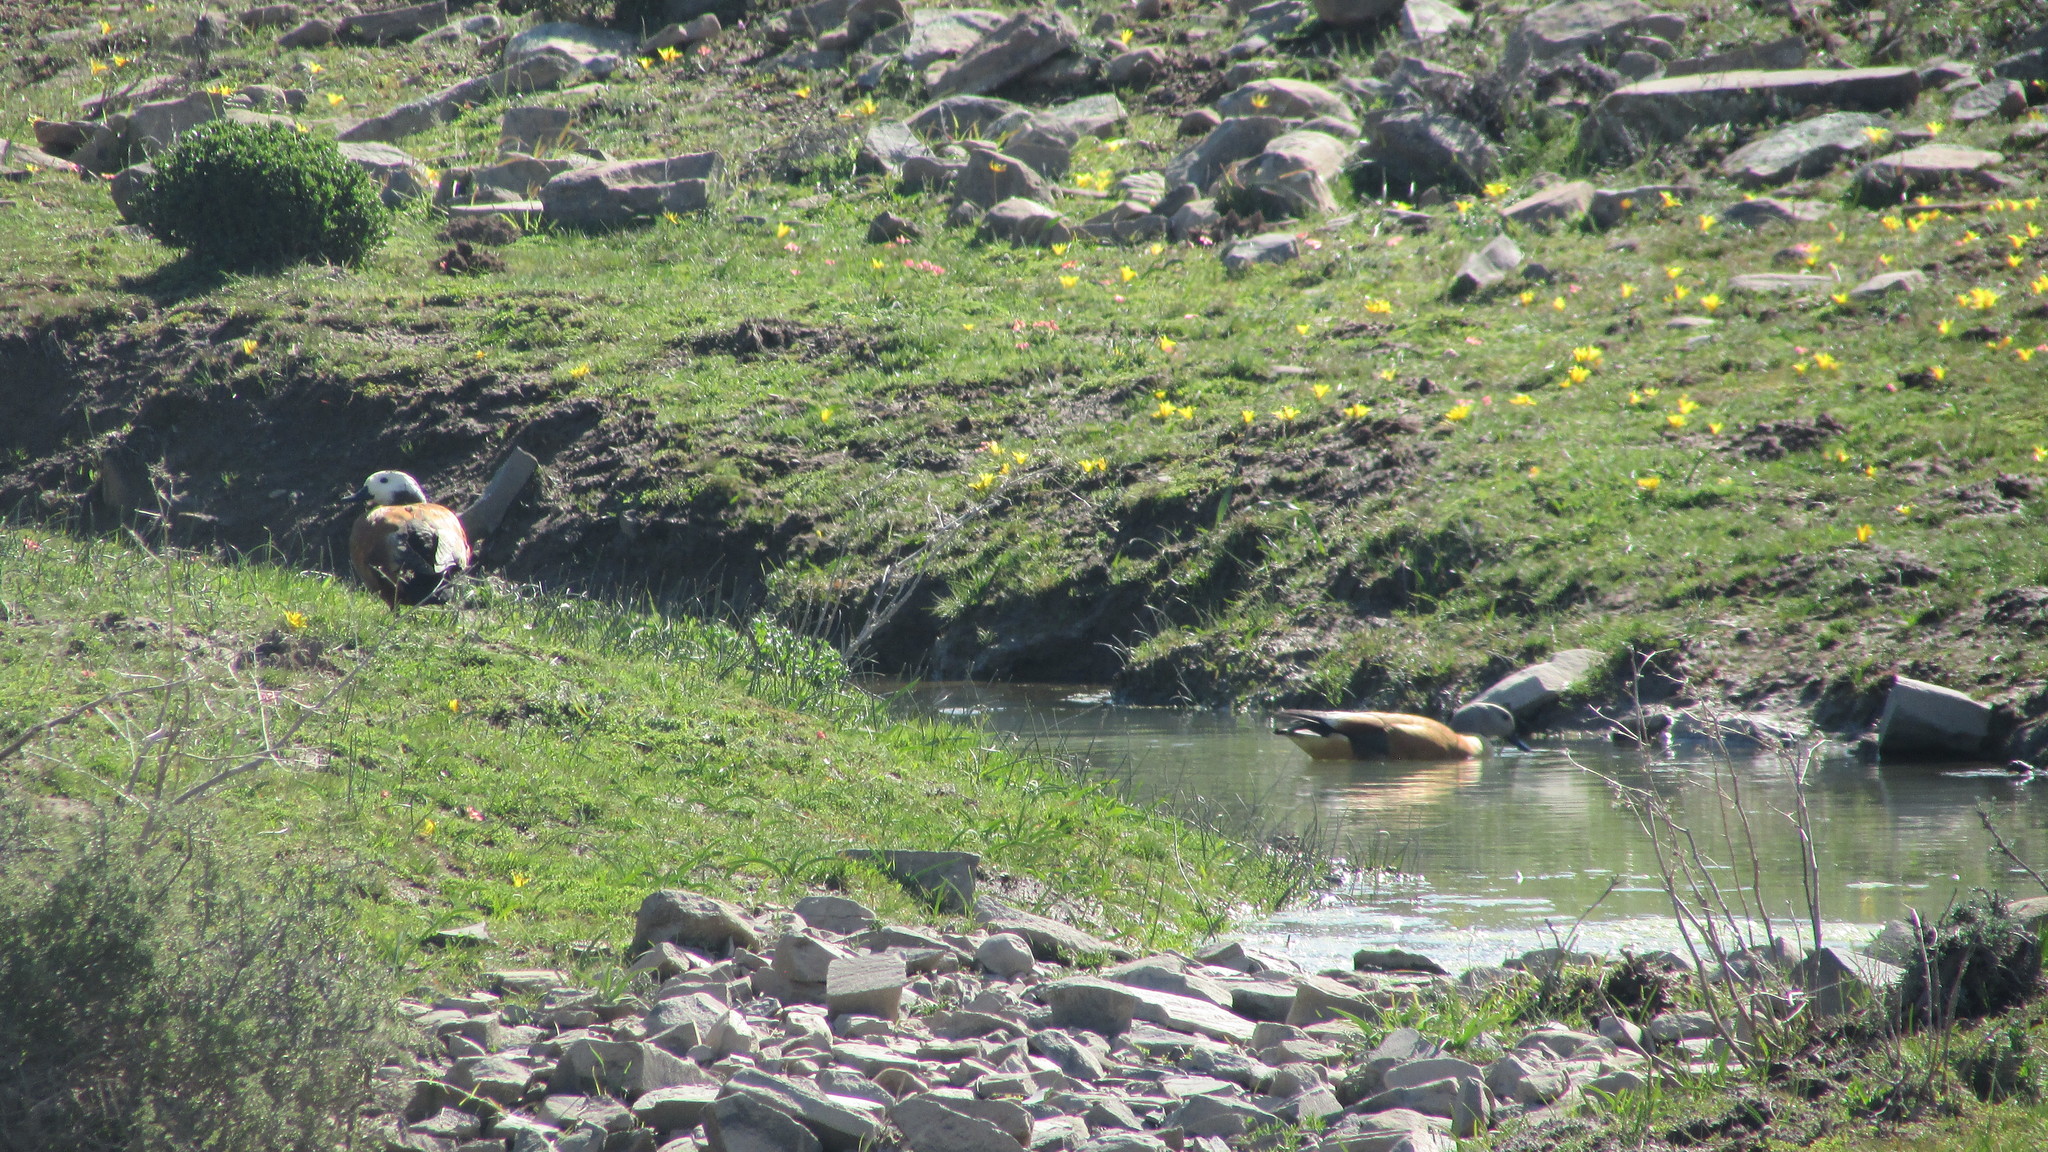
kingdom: Animalia
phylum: Chordata
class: Aves
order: Anseriformes
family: Anatidae
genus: Tadorna
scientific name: Tadorna cana
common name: South african shelduck
